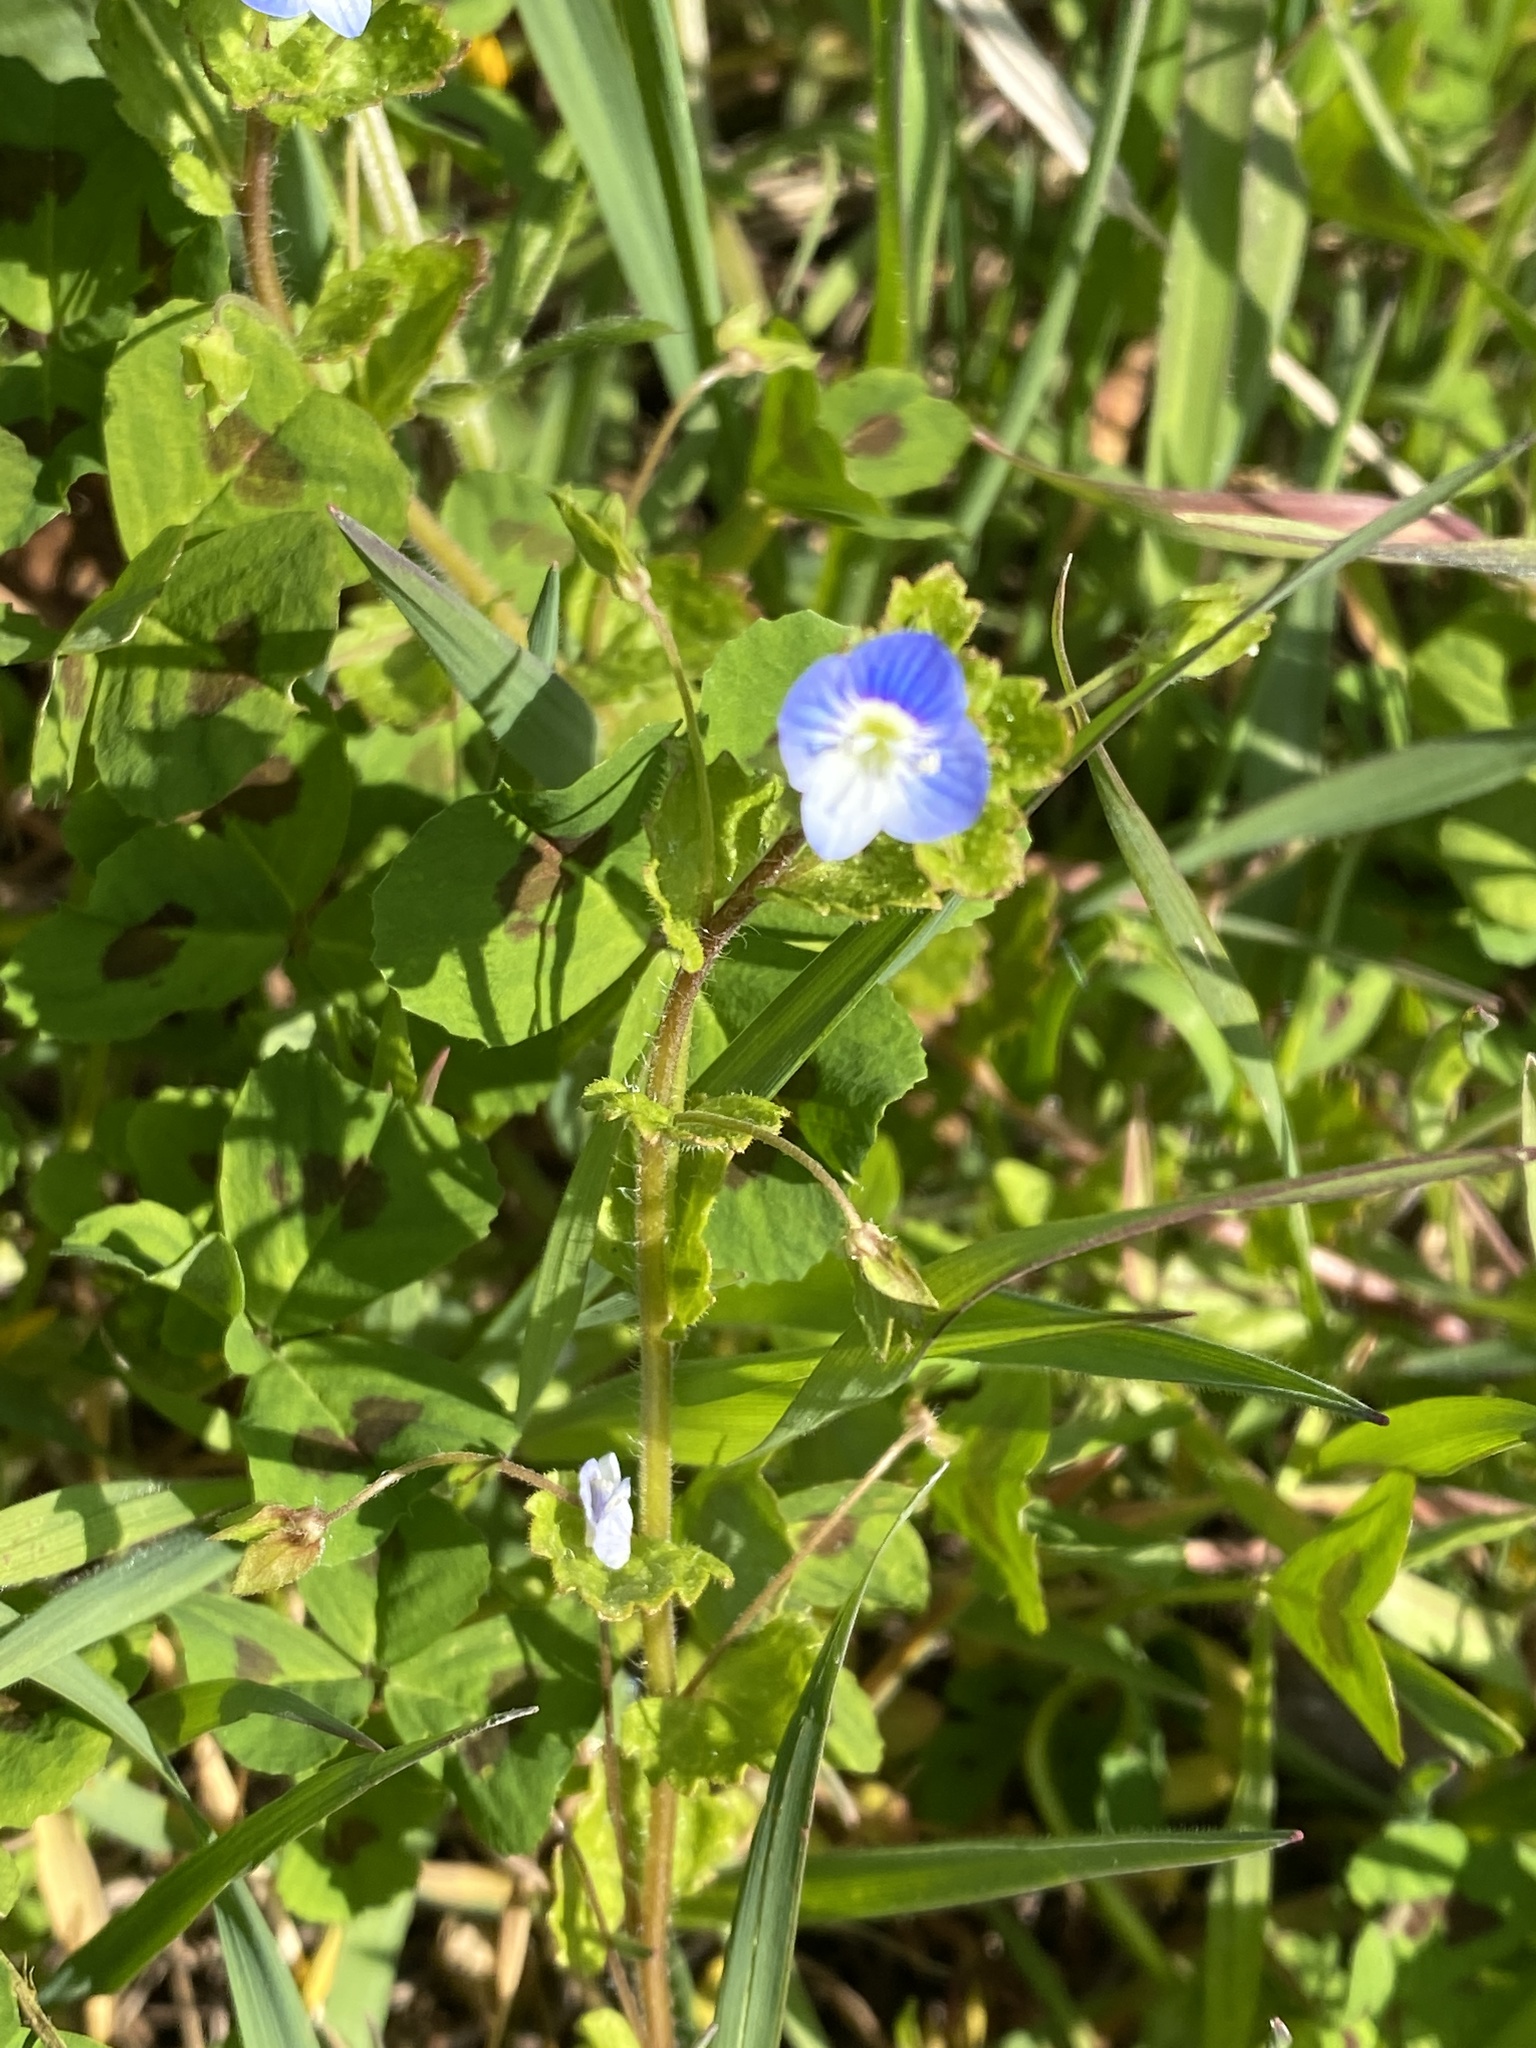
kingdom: Plantae
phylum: Tracheophyta
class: Magnoliopsida
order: Lamiales
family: Plantaginaceae
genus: Veronica
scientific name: Veronica persica
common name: Common field-speedwell
